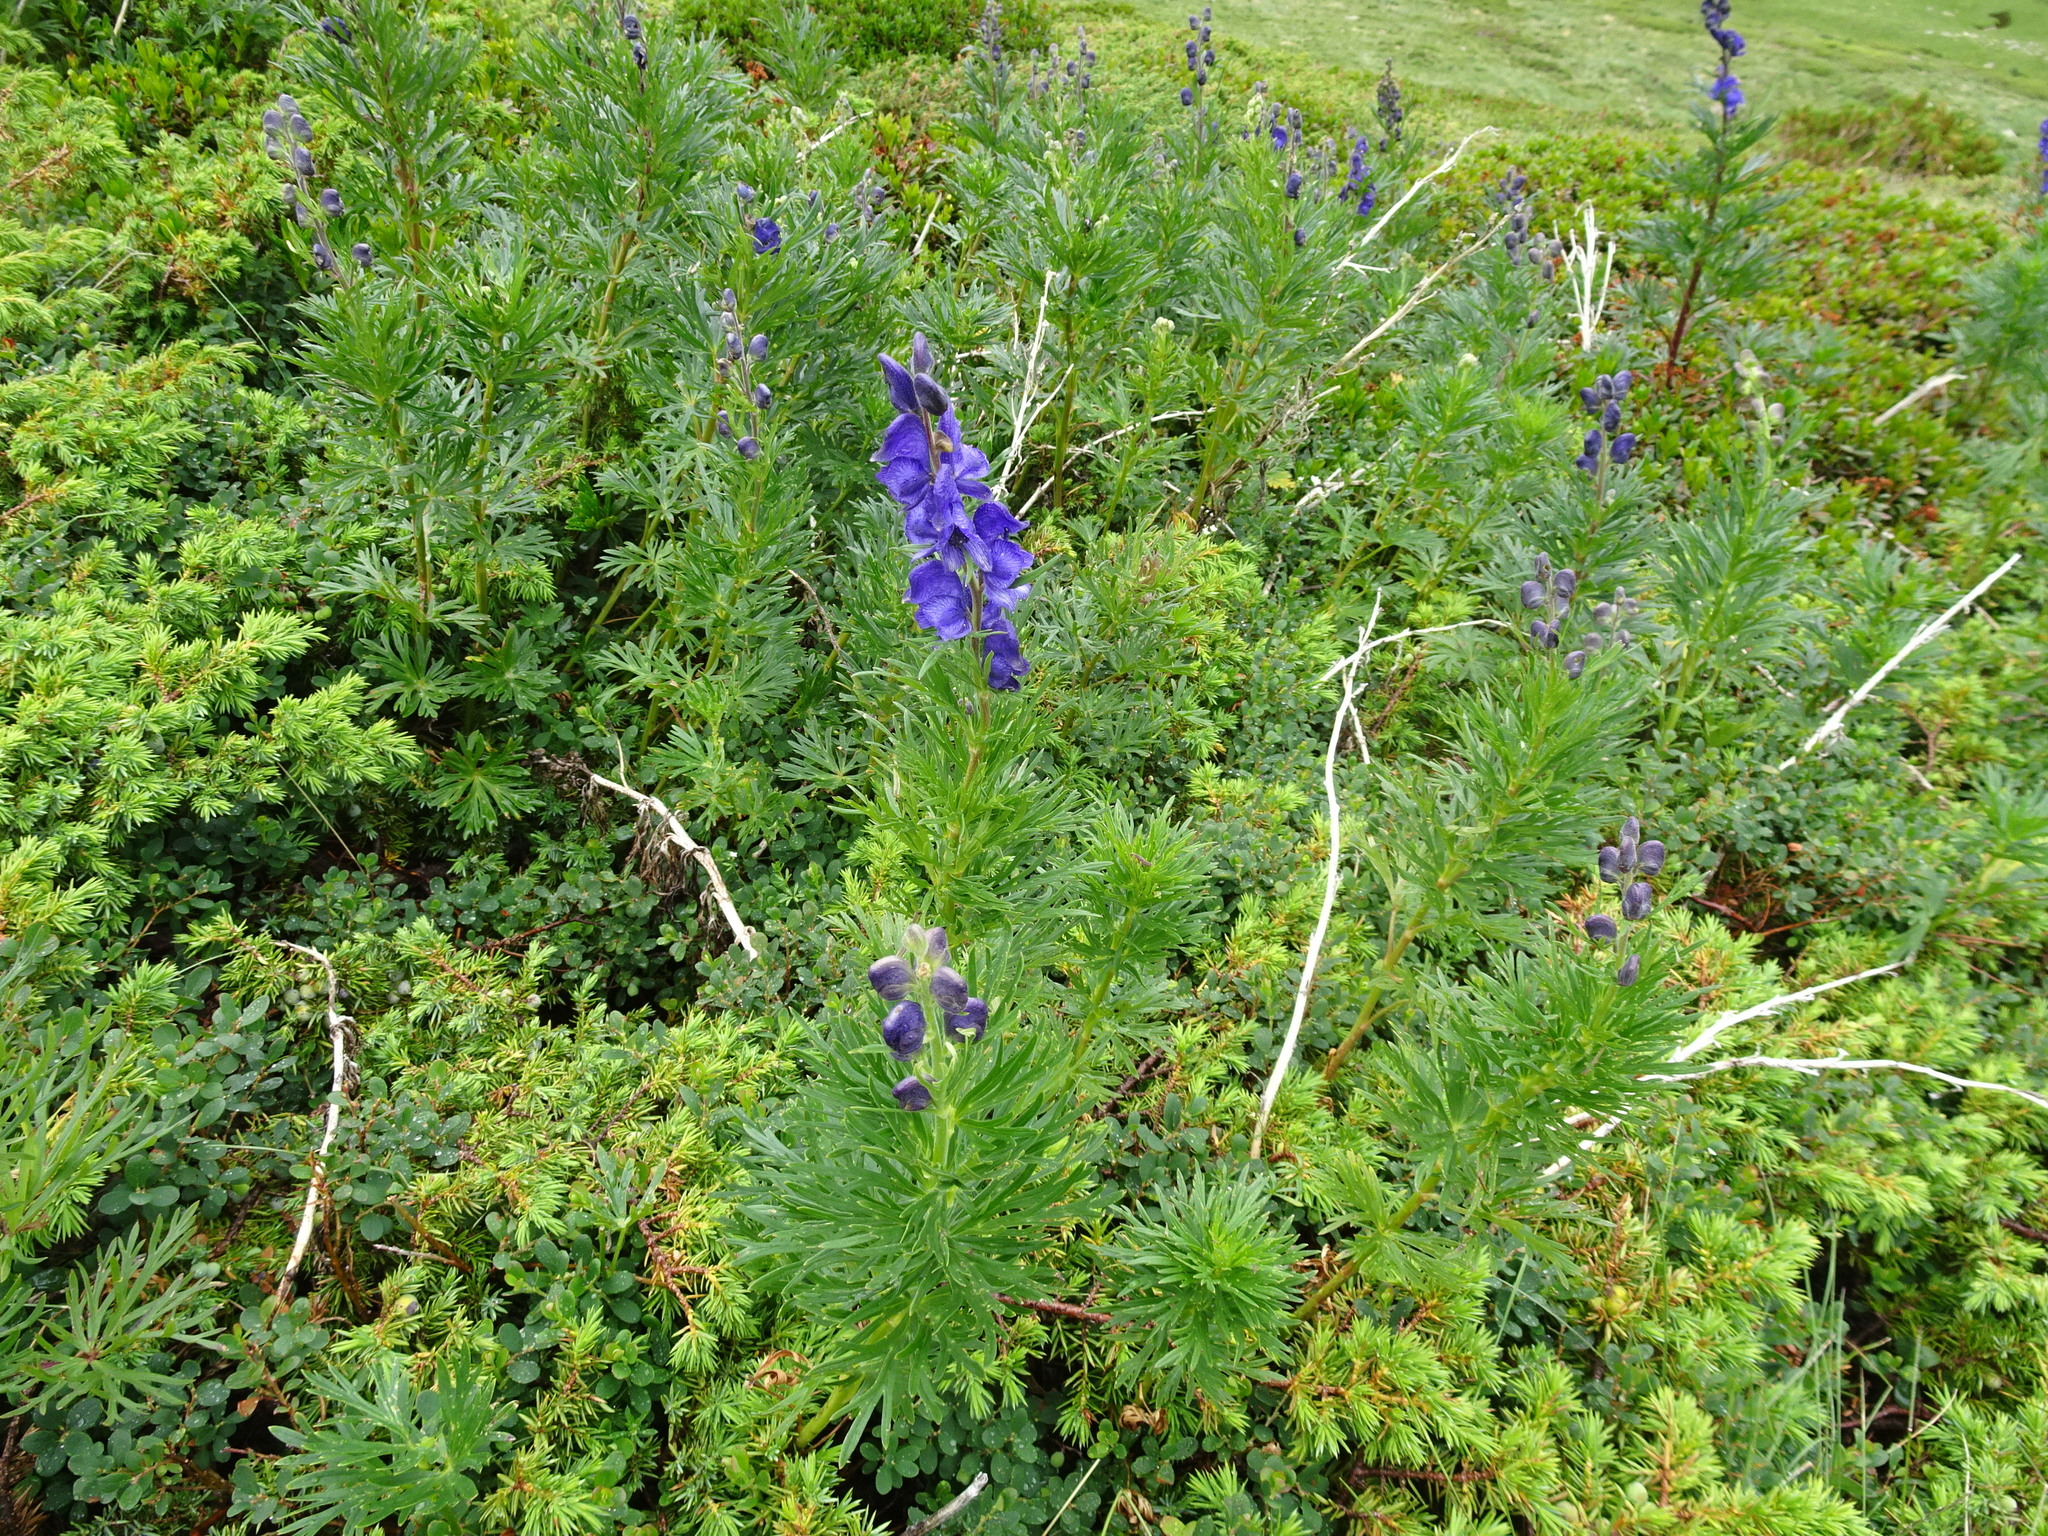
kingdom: Plantae
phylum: Tracheophyta
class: Magnoliopsida
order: Ranunculales
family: Ranunculaceae
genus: Aconitum
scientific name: Aconitum napellus
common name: Garden monkshood
